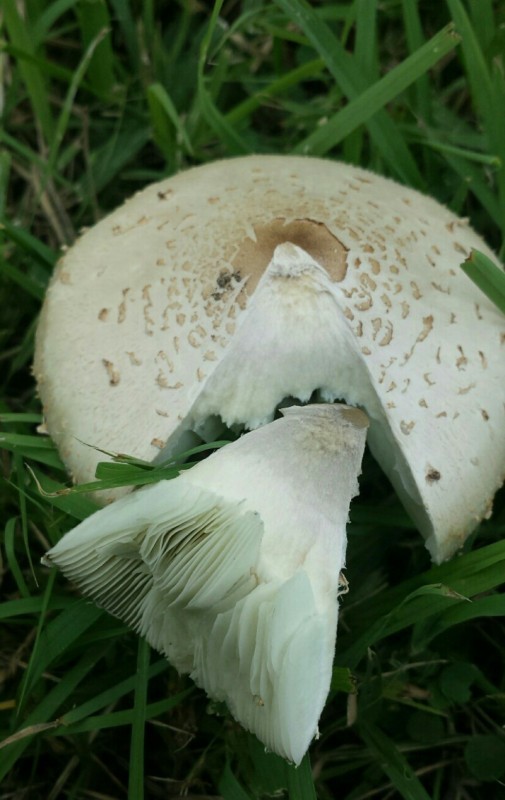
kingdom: Fungi
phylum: Basidiomycota
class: Agaricomycetes
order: Agaricales
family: Agaricaceae
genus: Chlorophyllum
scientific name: Chlorophyllum molybdites
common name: False parasol
